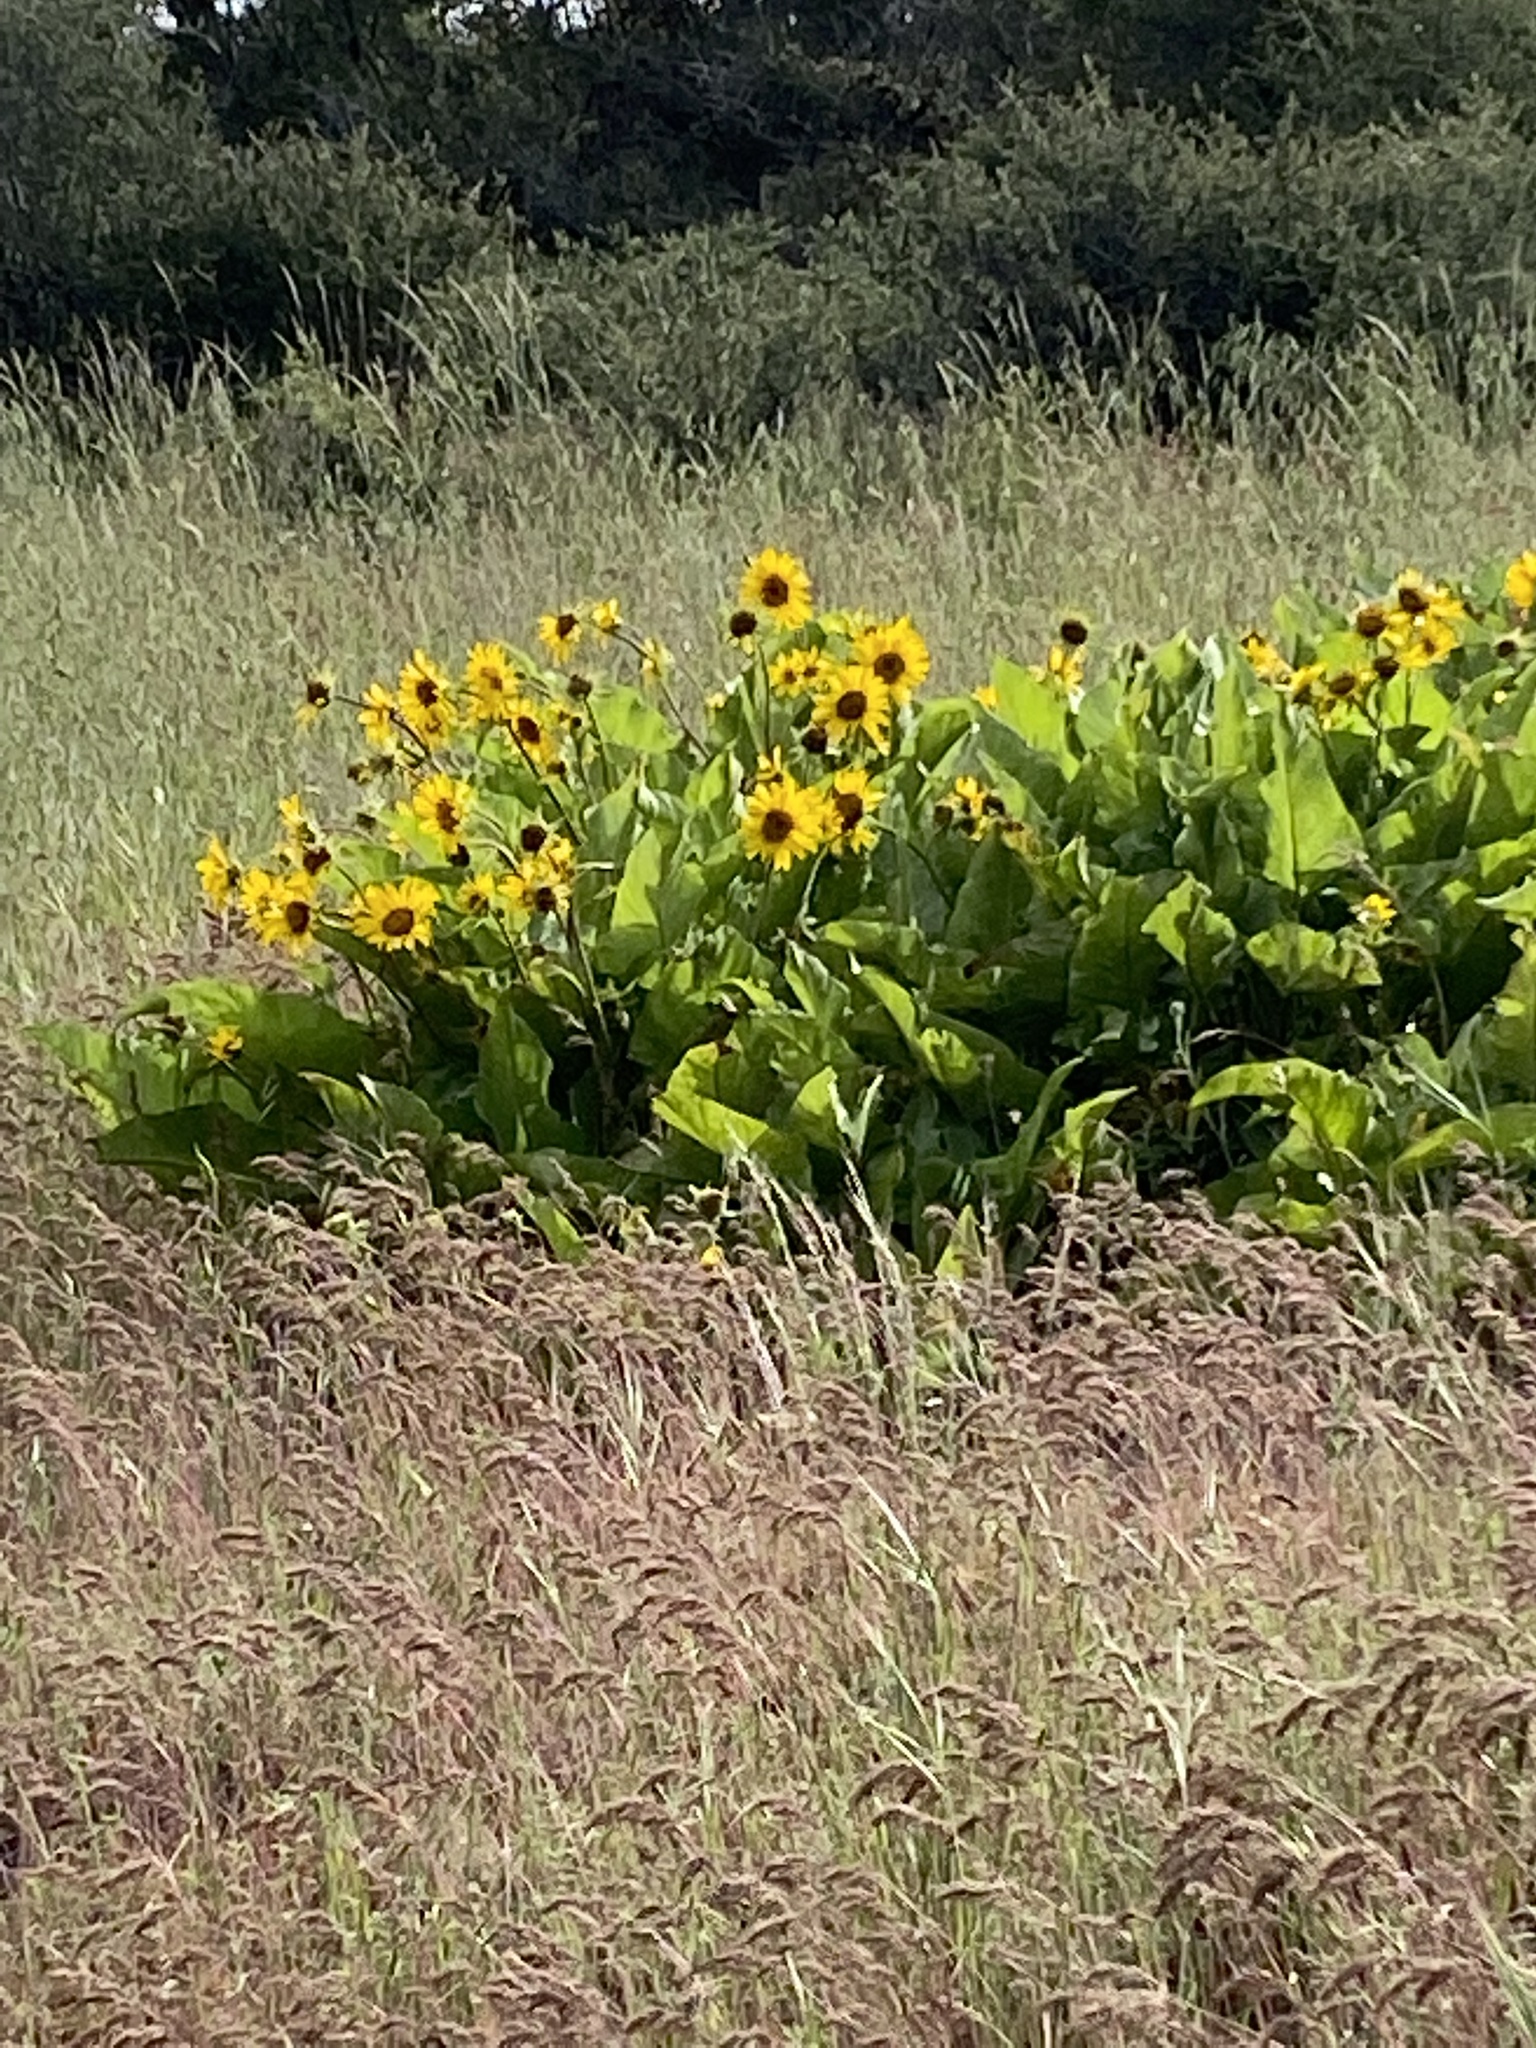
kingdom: Plantae
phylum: Tracheophyta
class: Magnoliopsida
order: Asterales
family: Asteraceae
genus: Balsamorhiza
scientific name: Balsamorhiza deltoidea
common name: Deltoid balsamroot
